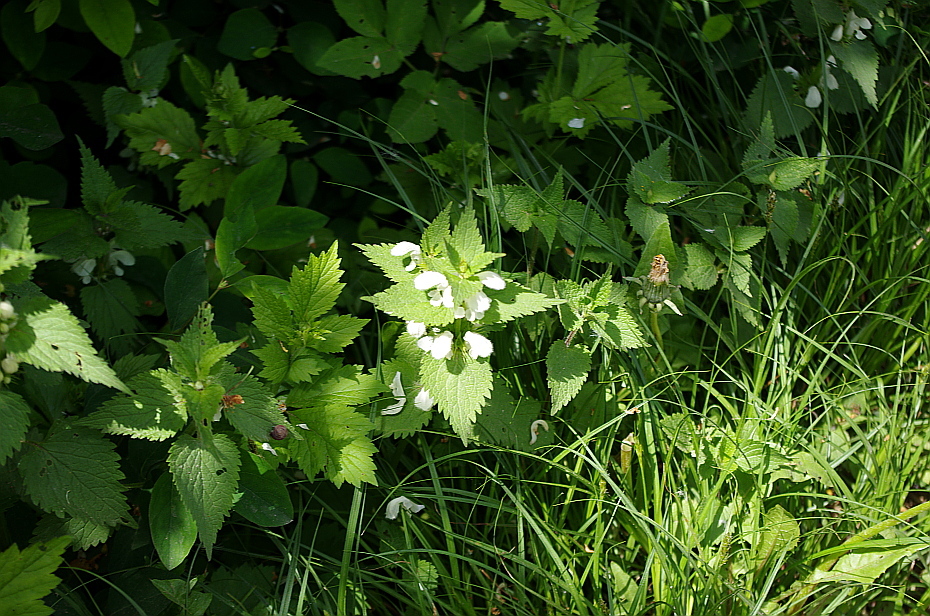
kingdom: Plantae
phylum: Tracheophyta
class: Magnoliopsida
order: Lamiales
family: Lamiaceae
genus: Lamium
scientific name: Lamium album
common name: White dead-nettle
